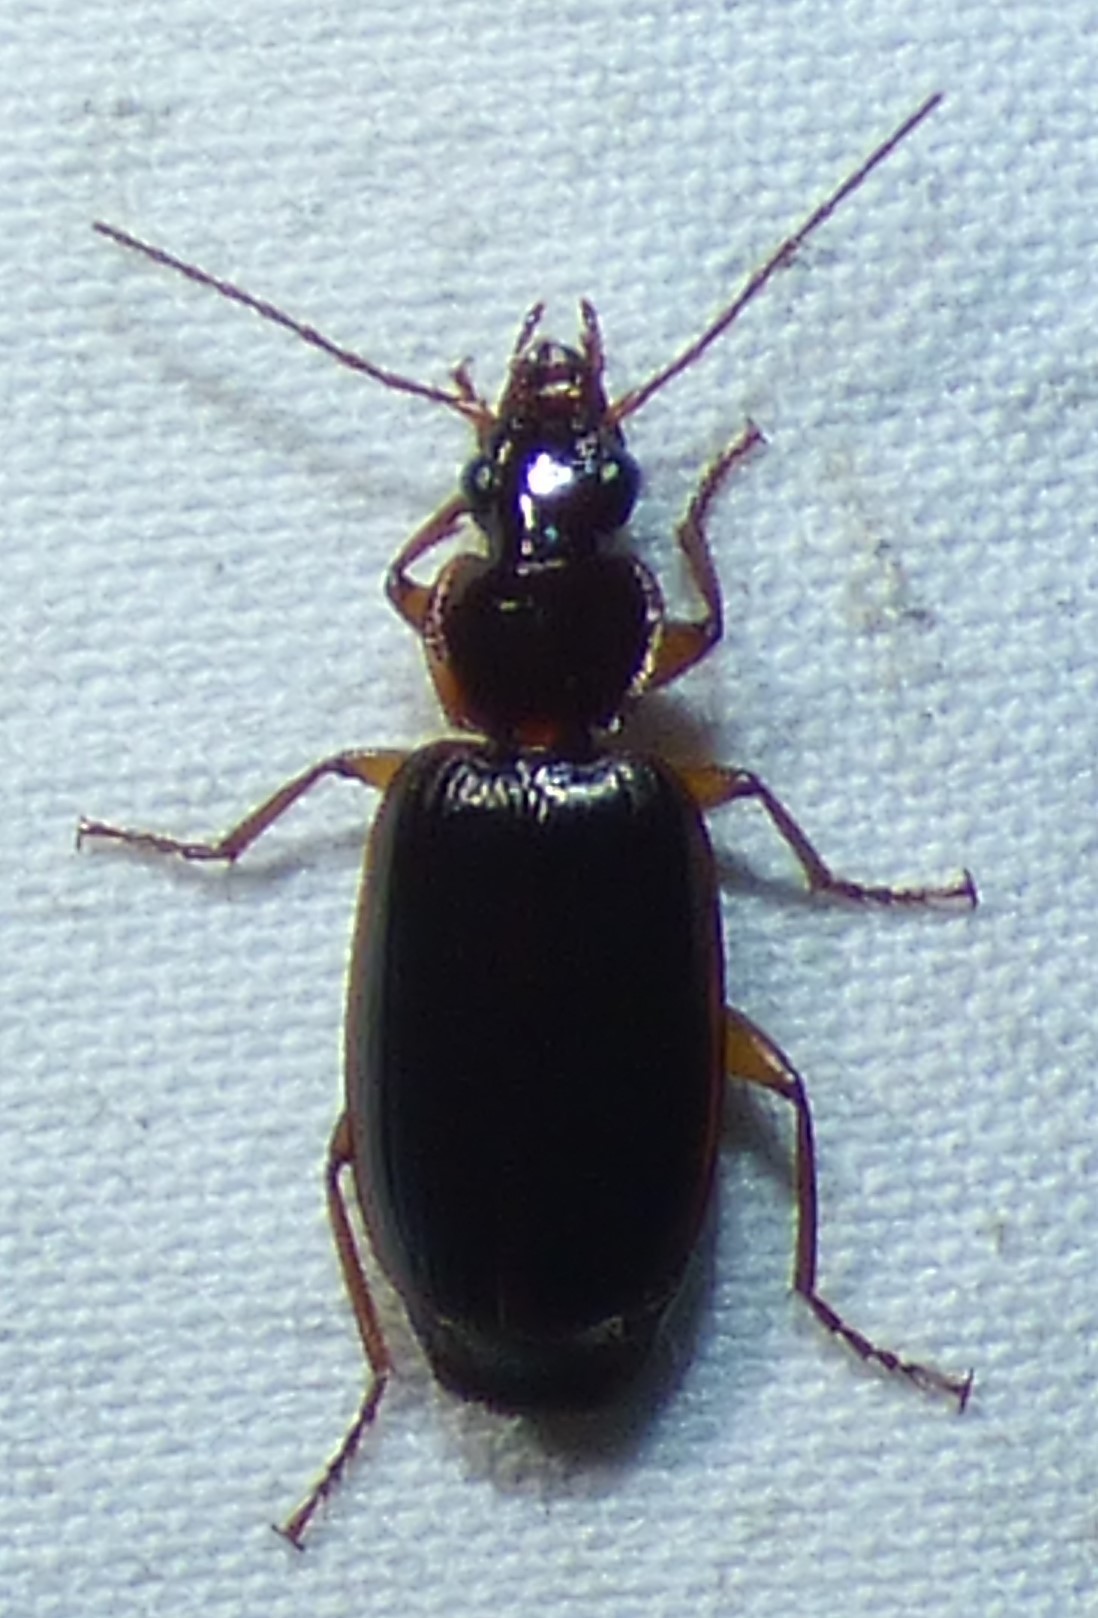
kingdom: Animalia
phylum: Arthropoda
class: Insecta
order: Coleoptera
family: Carabidae
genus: Pinacodera
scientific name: Pinacodera platicollis
